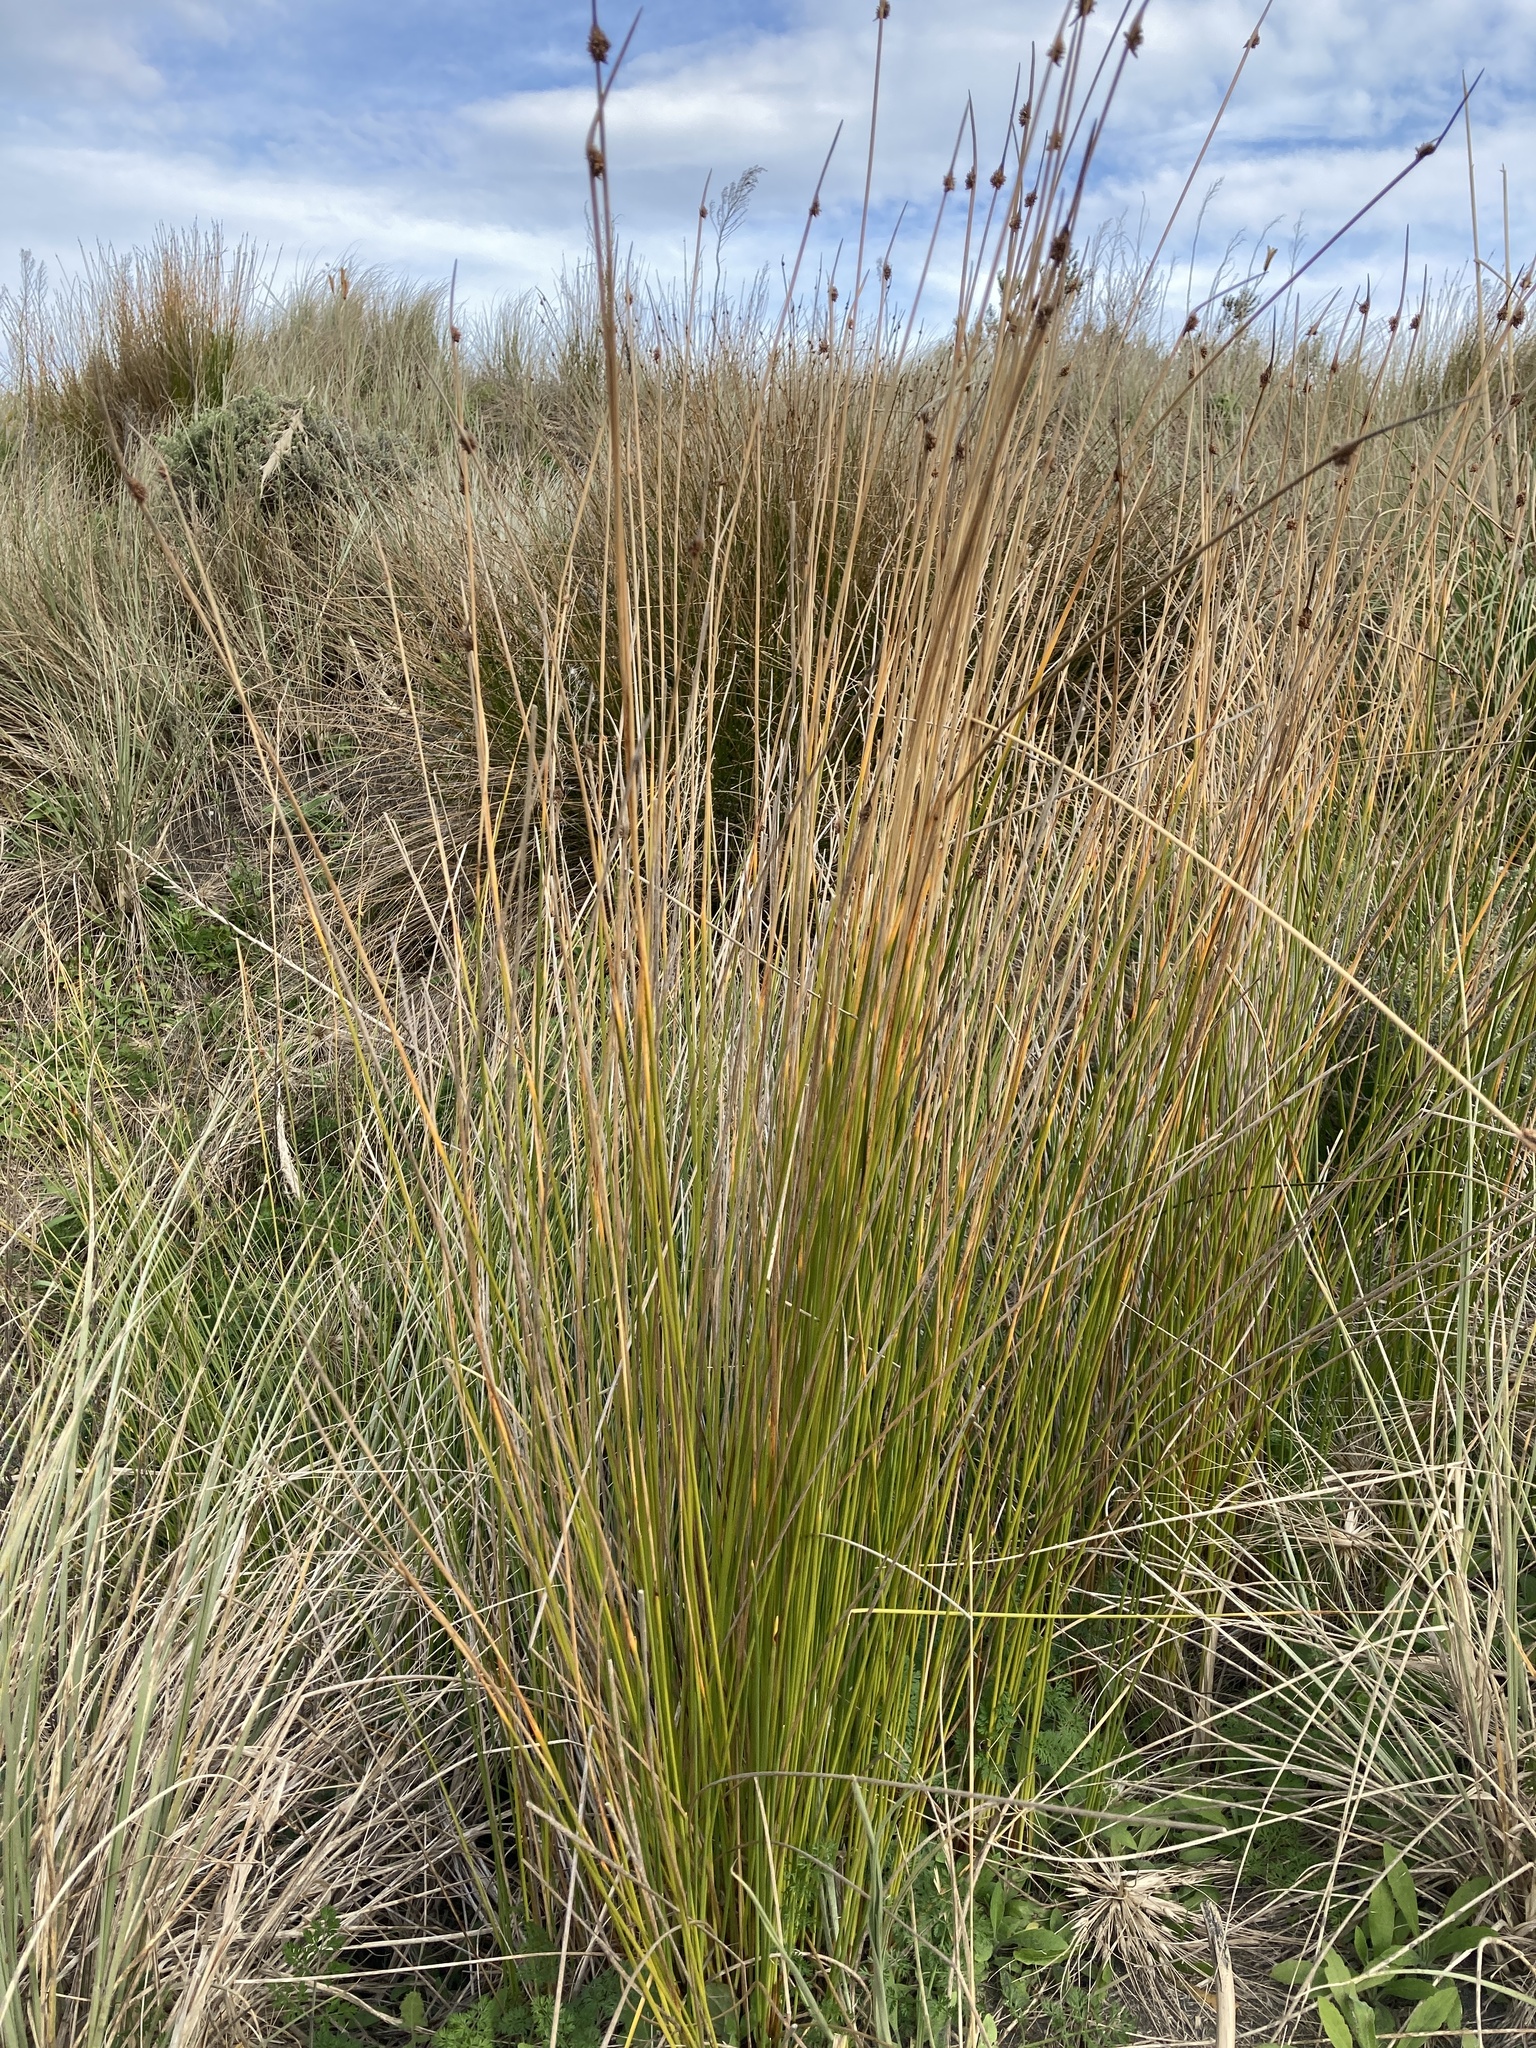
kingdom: Plantae
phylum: Tracheophyta
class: Liliopsida
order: Poales
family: Cyperaceae
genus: Ficinia
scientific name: Ficinia nodosa
